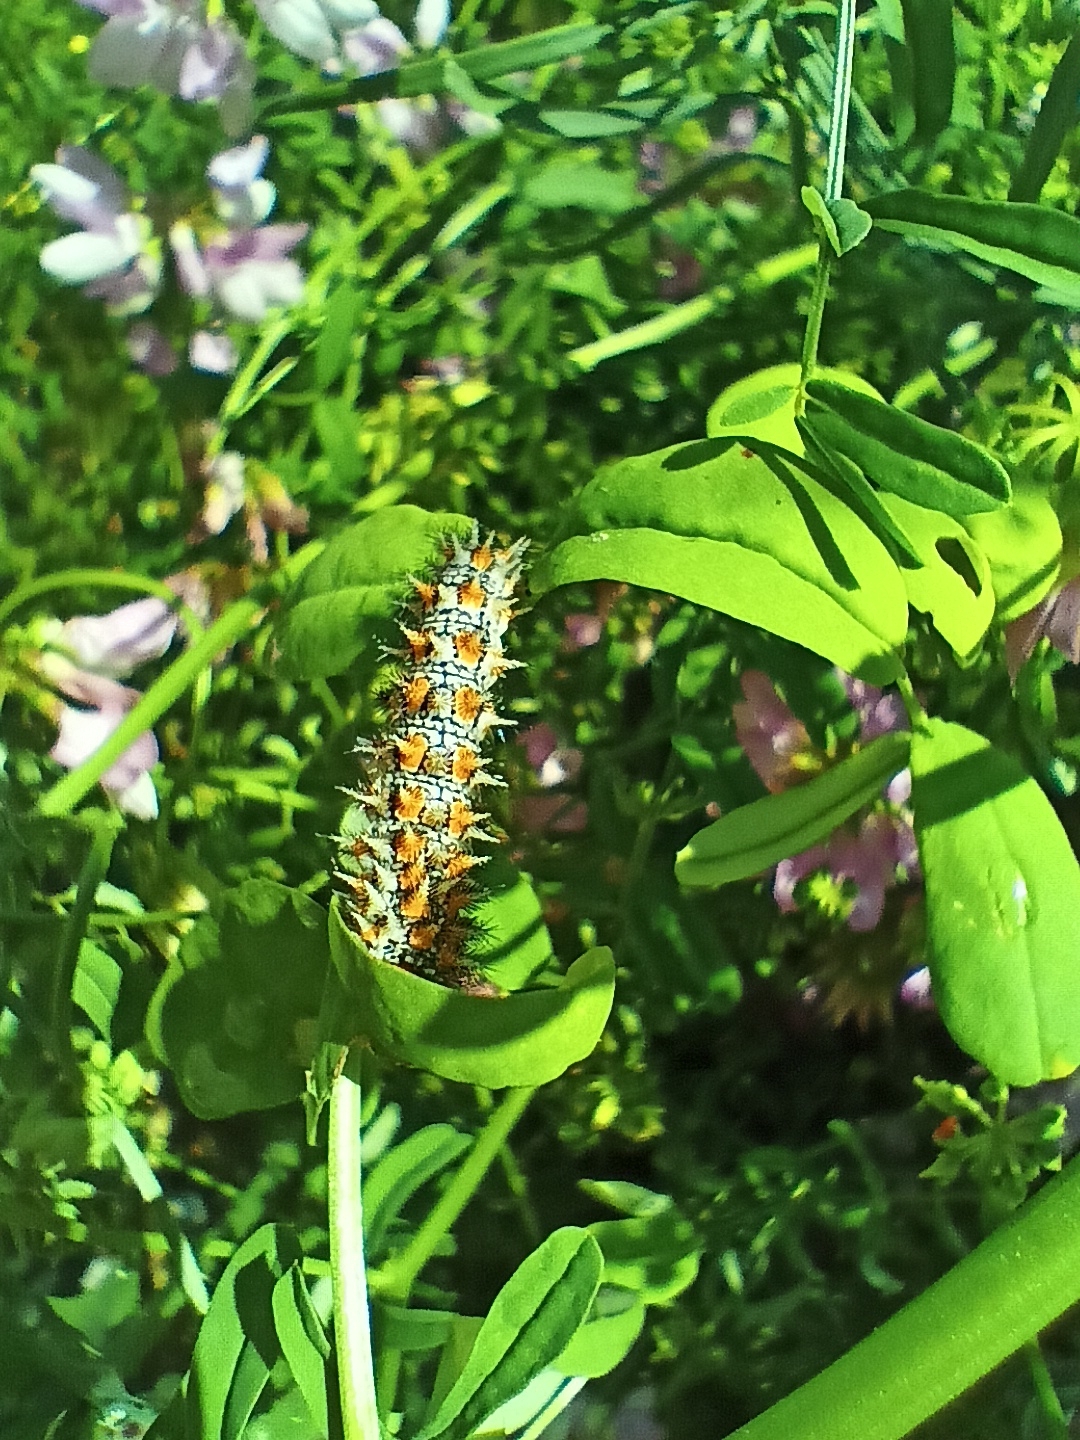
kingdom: Animalia
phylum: Arthropoda
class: Insecta
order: Lepidoptera
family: Nymphalidae
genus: Melitaea
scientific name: Melitaea didyma
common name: Spotted fritillary
